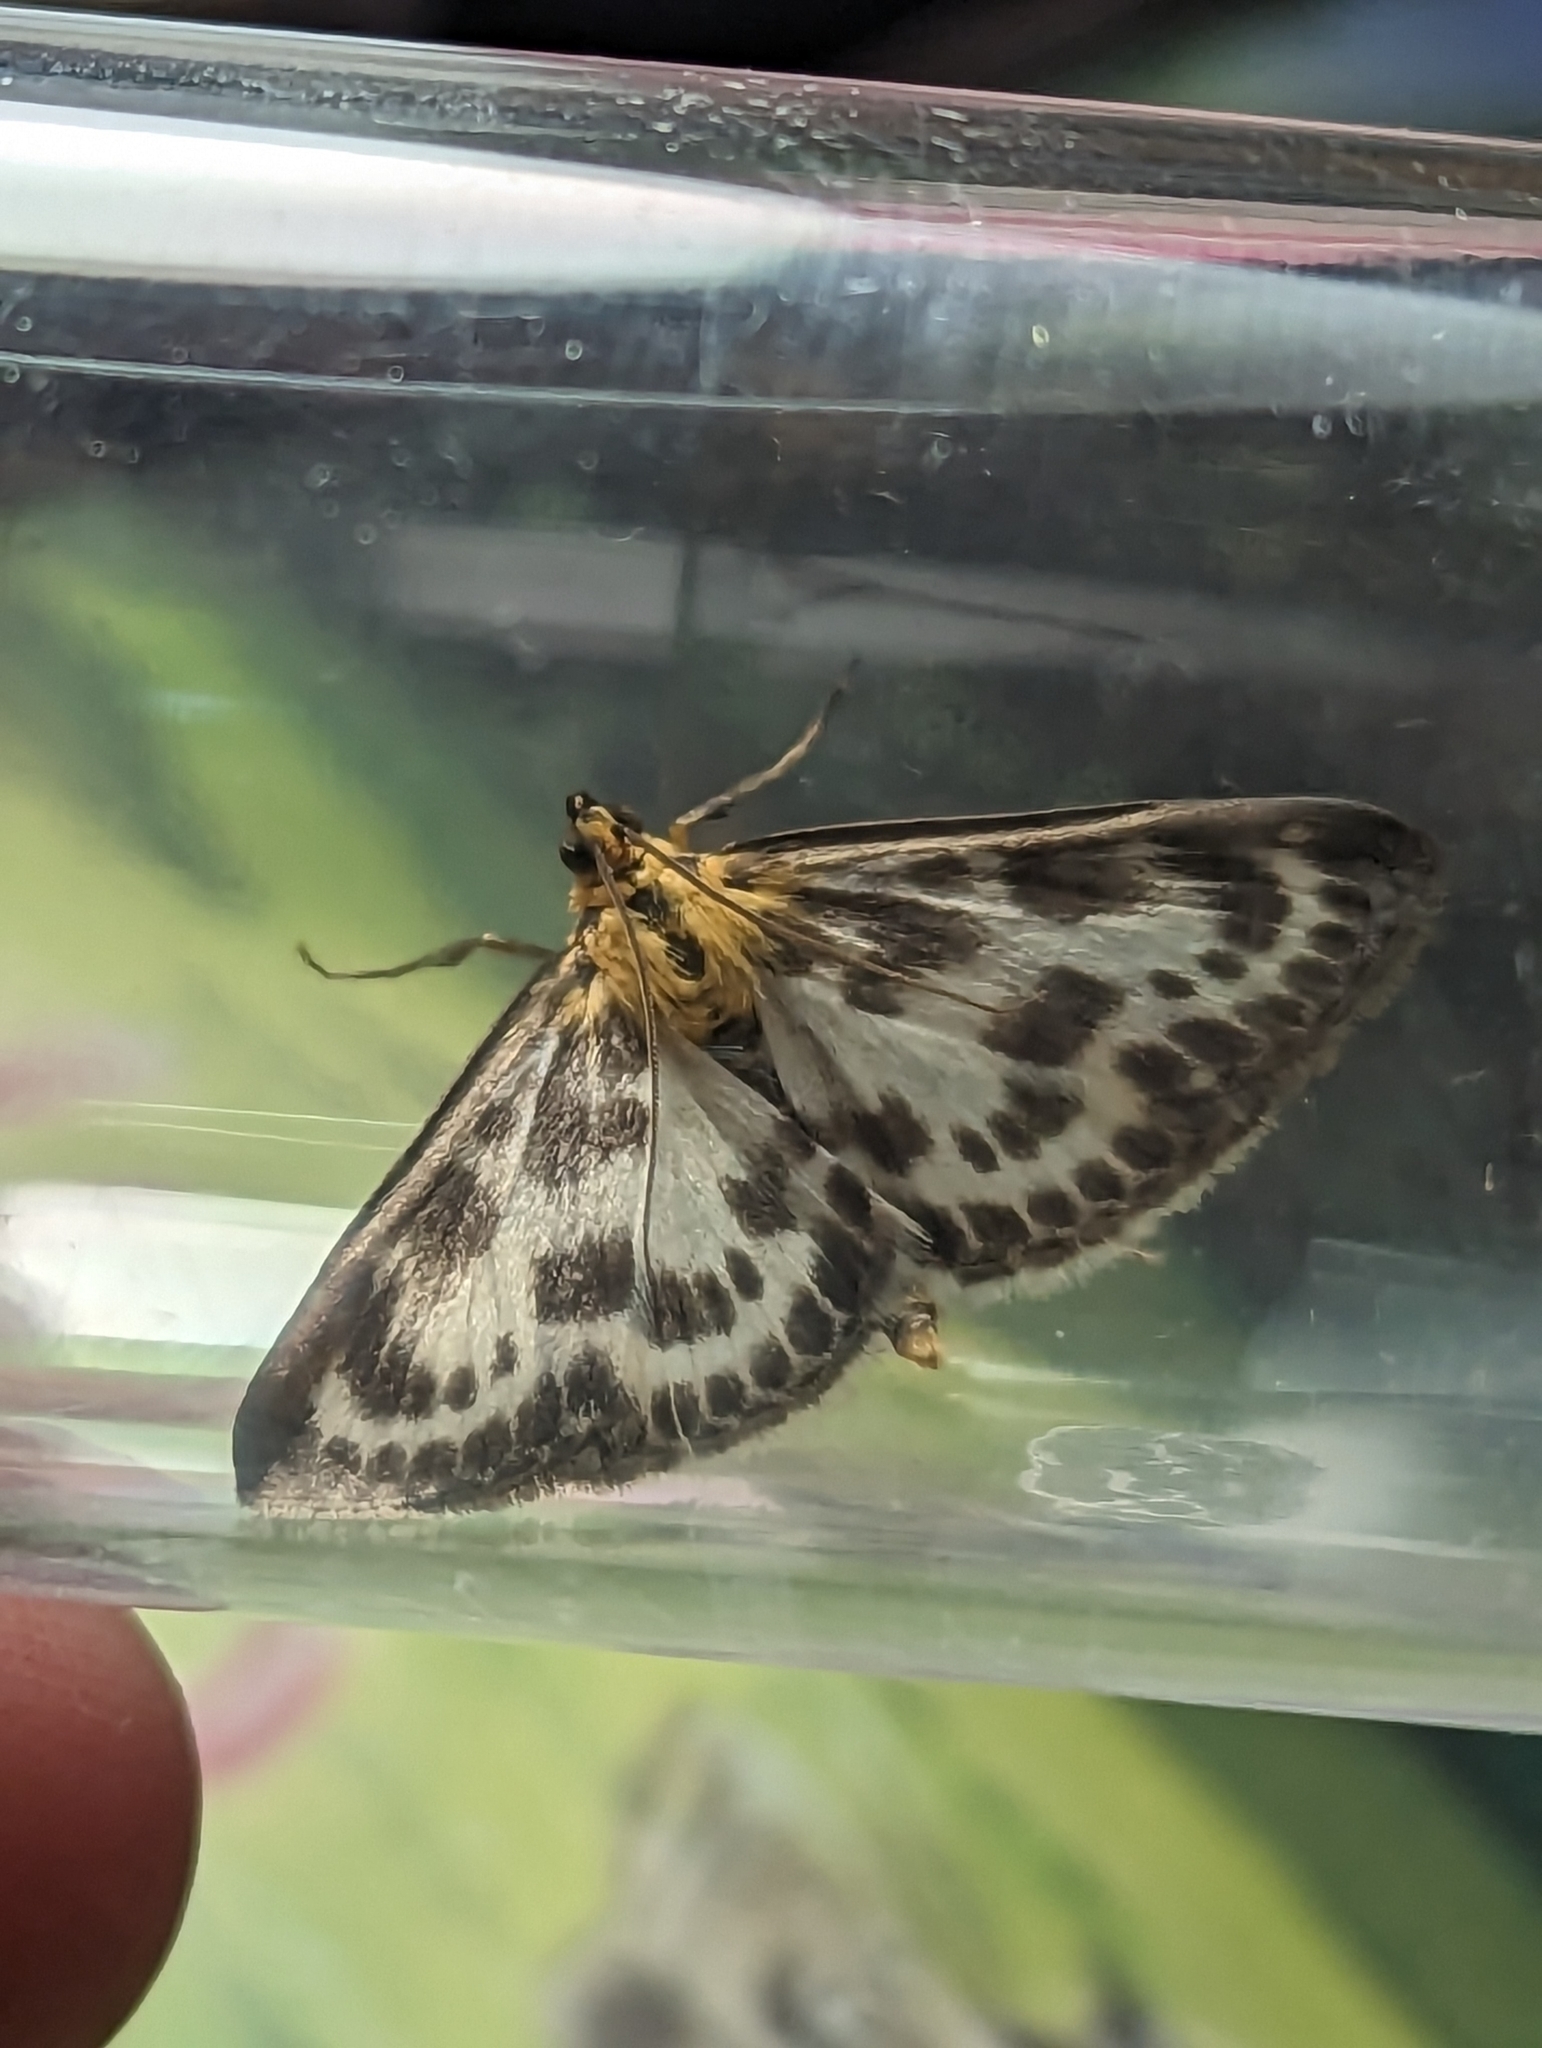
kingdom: Animalia
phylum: Arthropoda
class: Insecta
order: Lepidoptera
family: Crambidae
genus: Anania
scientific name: Anania hortulata
